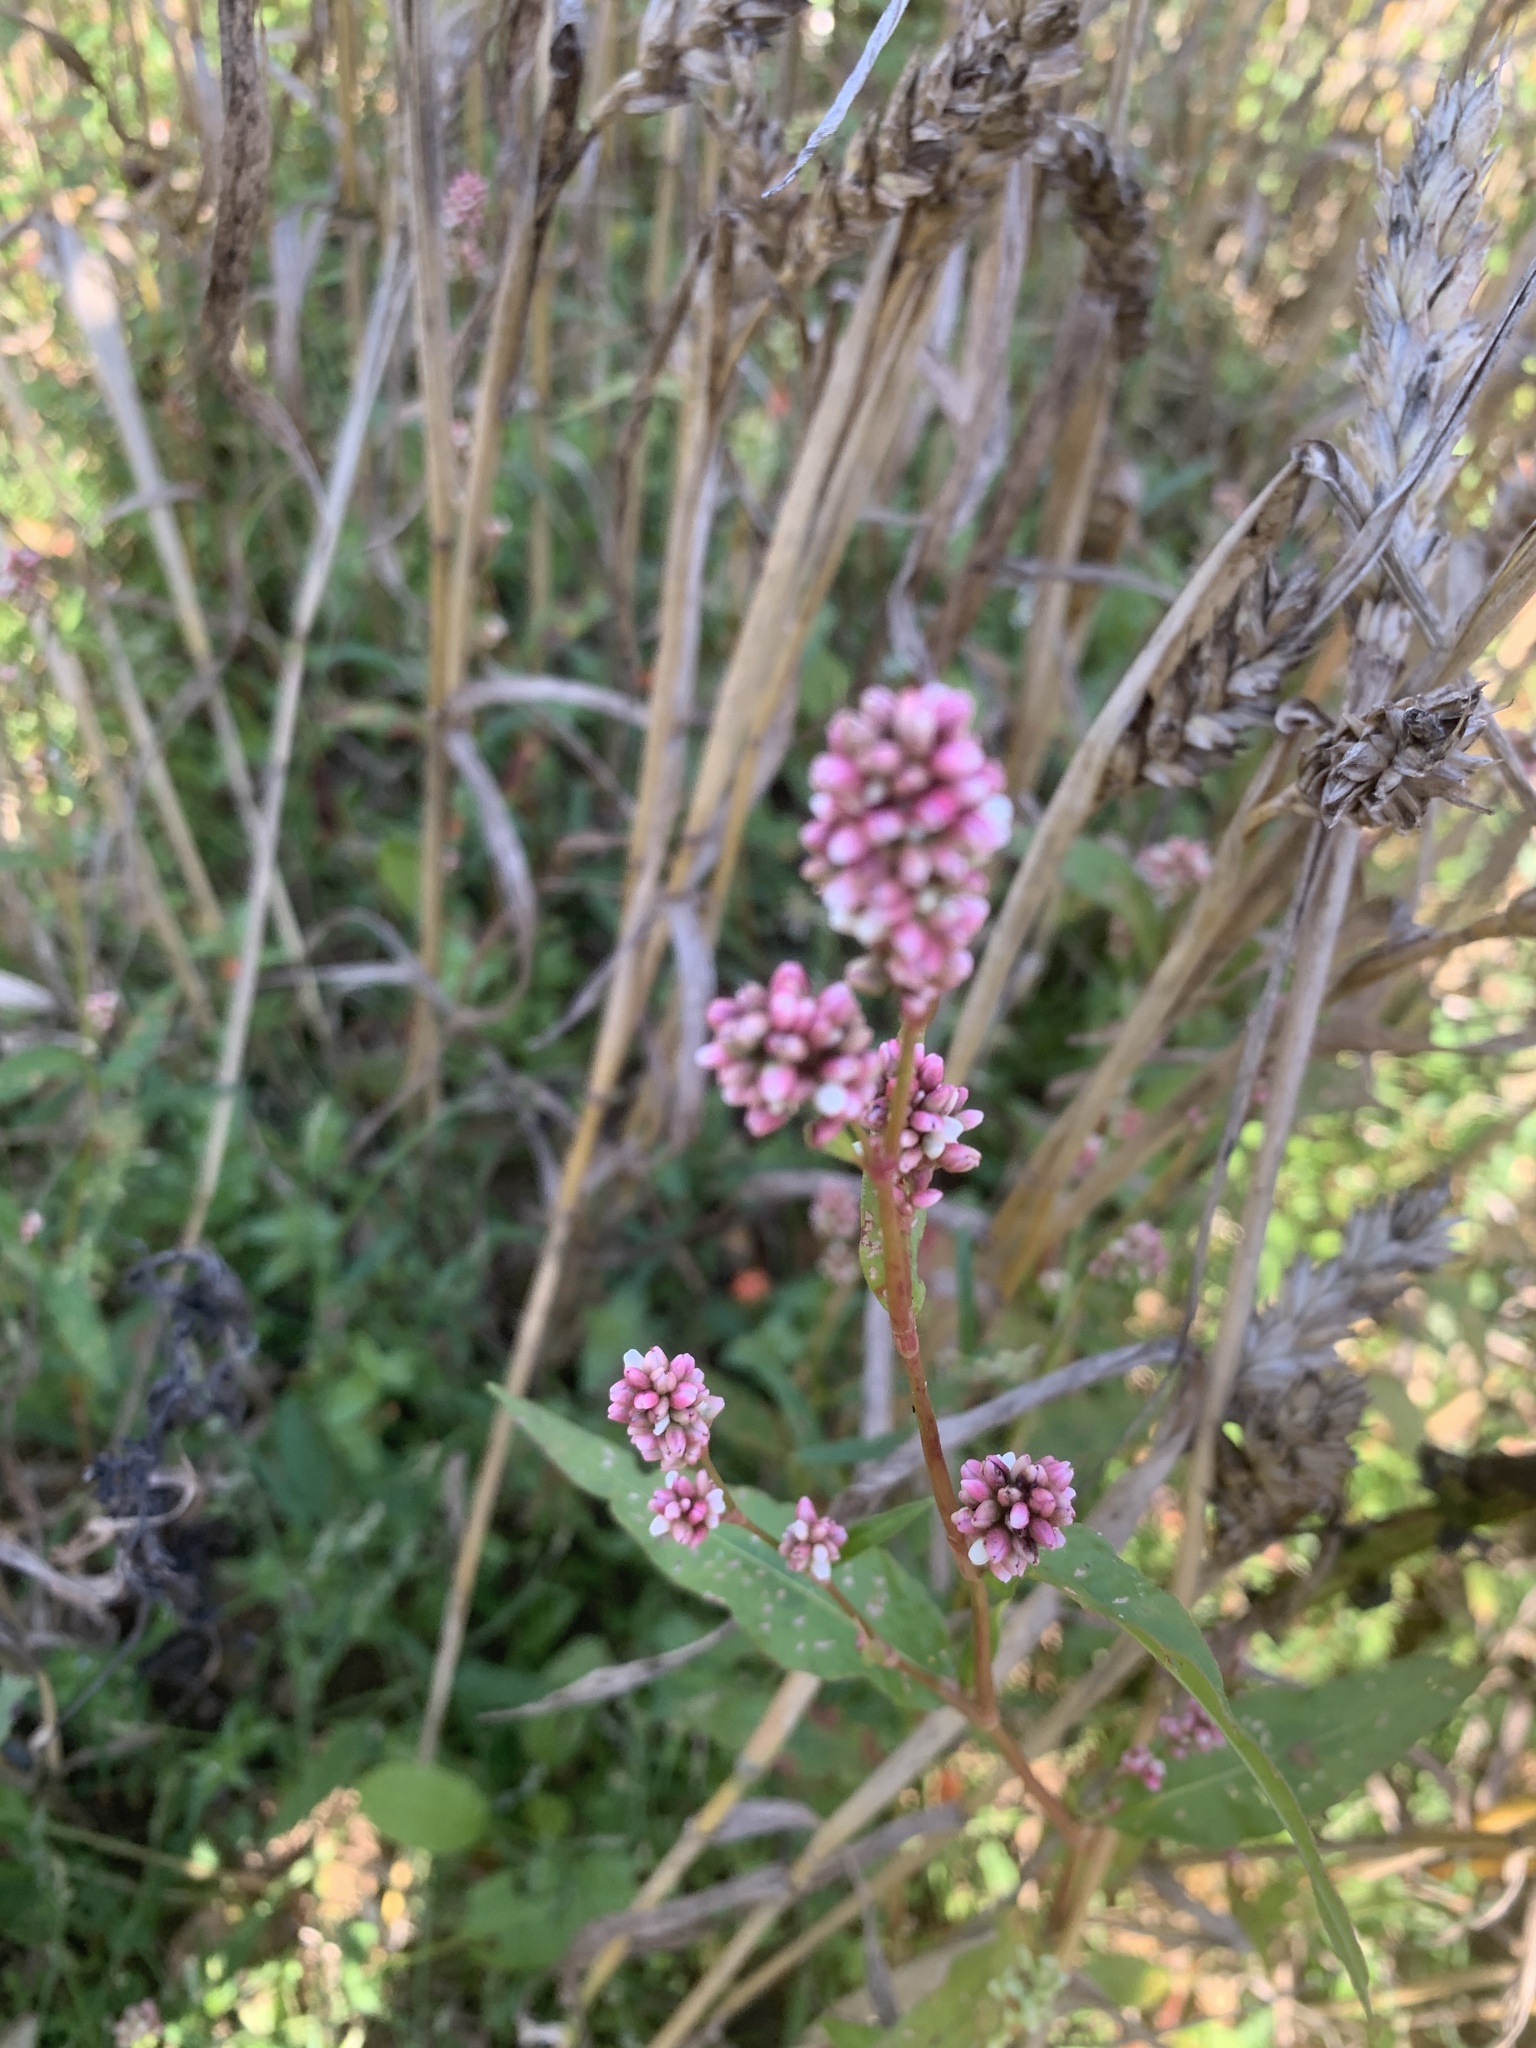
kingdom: Plantae
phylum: Tracheophyta
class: Magnoliopsida
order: Caryophyllales
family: Polygonaceae
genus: Persicaria
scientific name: Persicaria maculosa
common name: Redshank
